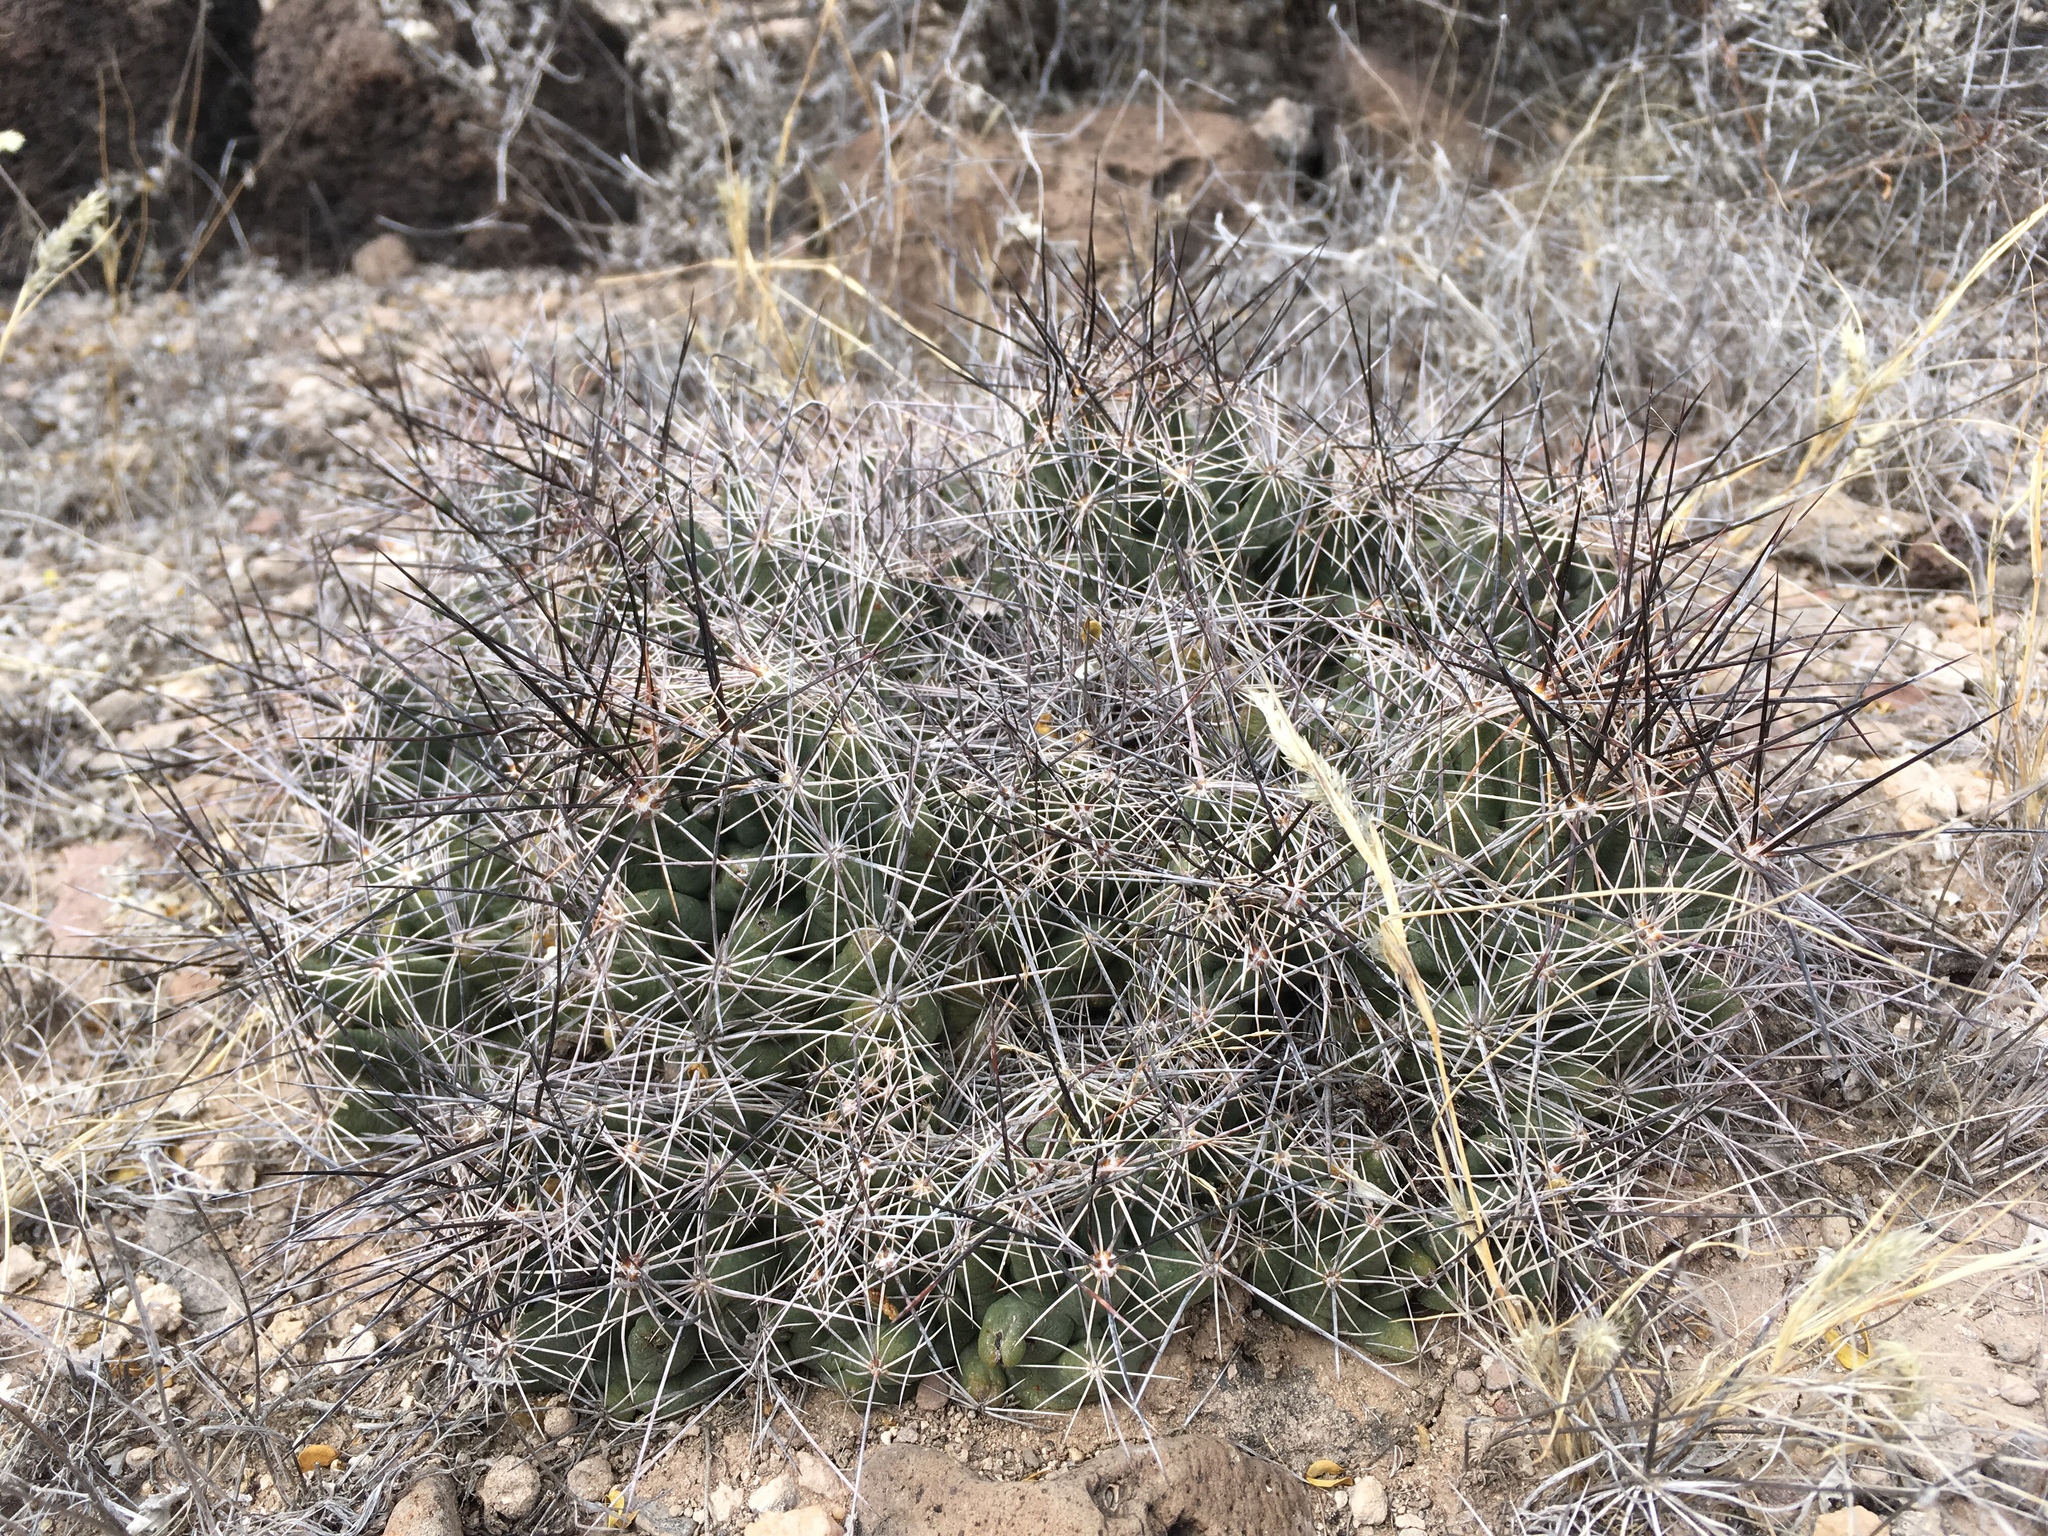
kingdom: Plantae
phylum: Tracheophyta
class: Magnoliopsida
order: Caryophyllales
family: Cactaceae
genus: Coryphantha
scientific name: Coryphantha macromeris
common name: Nipple beehive cactus
